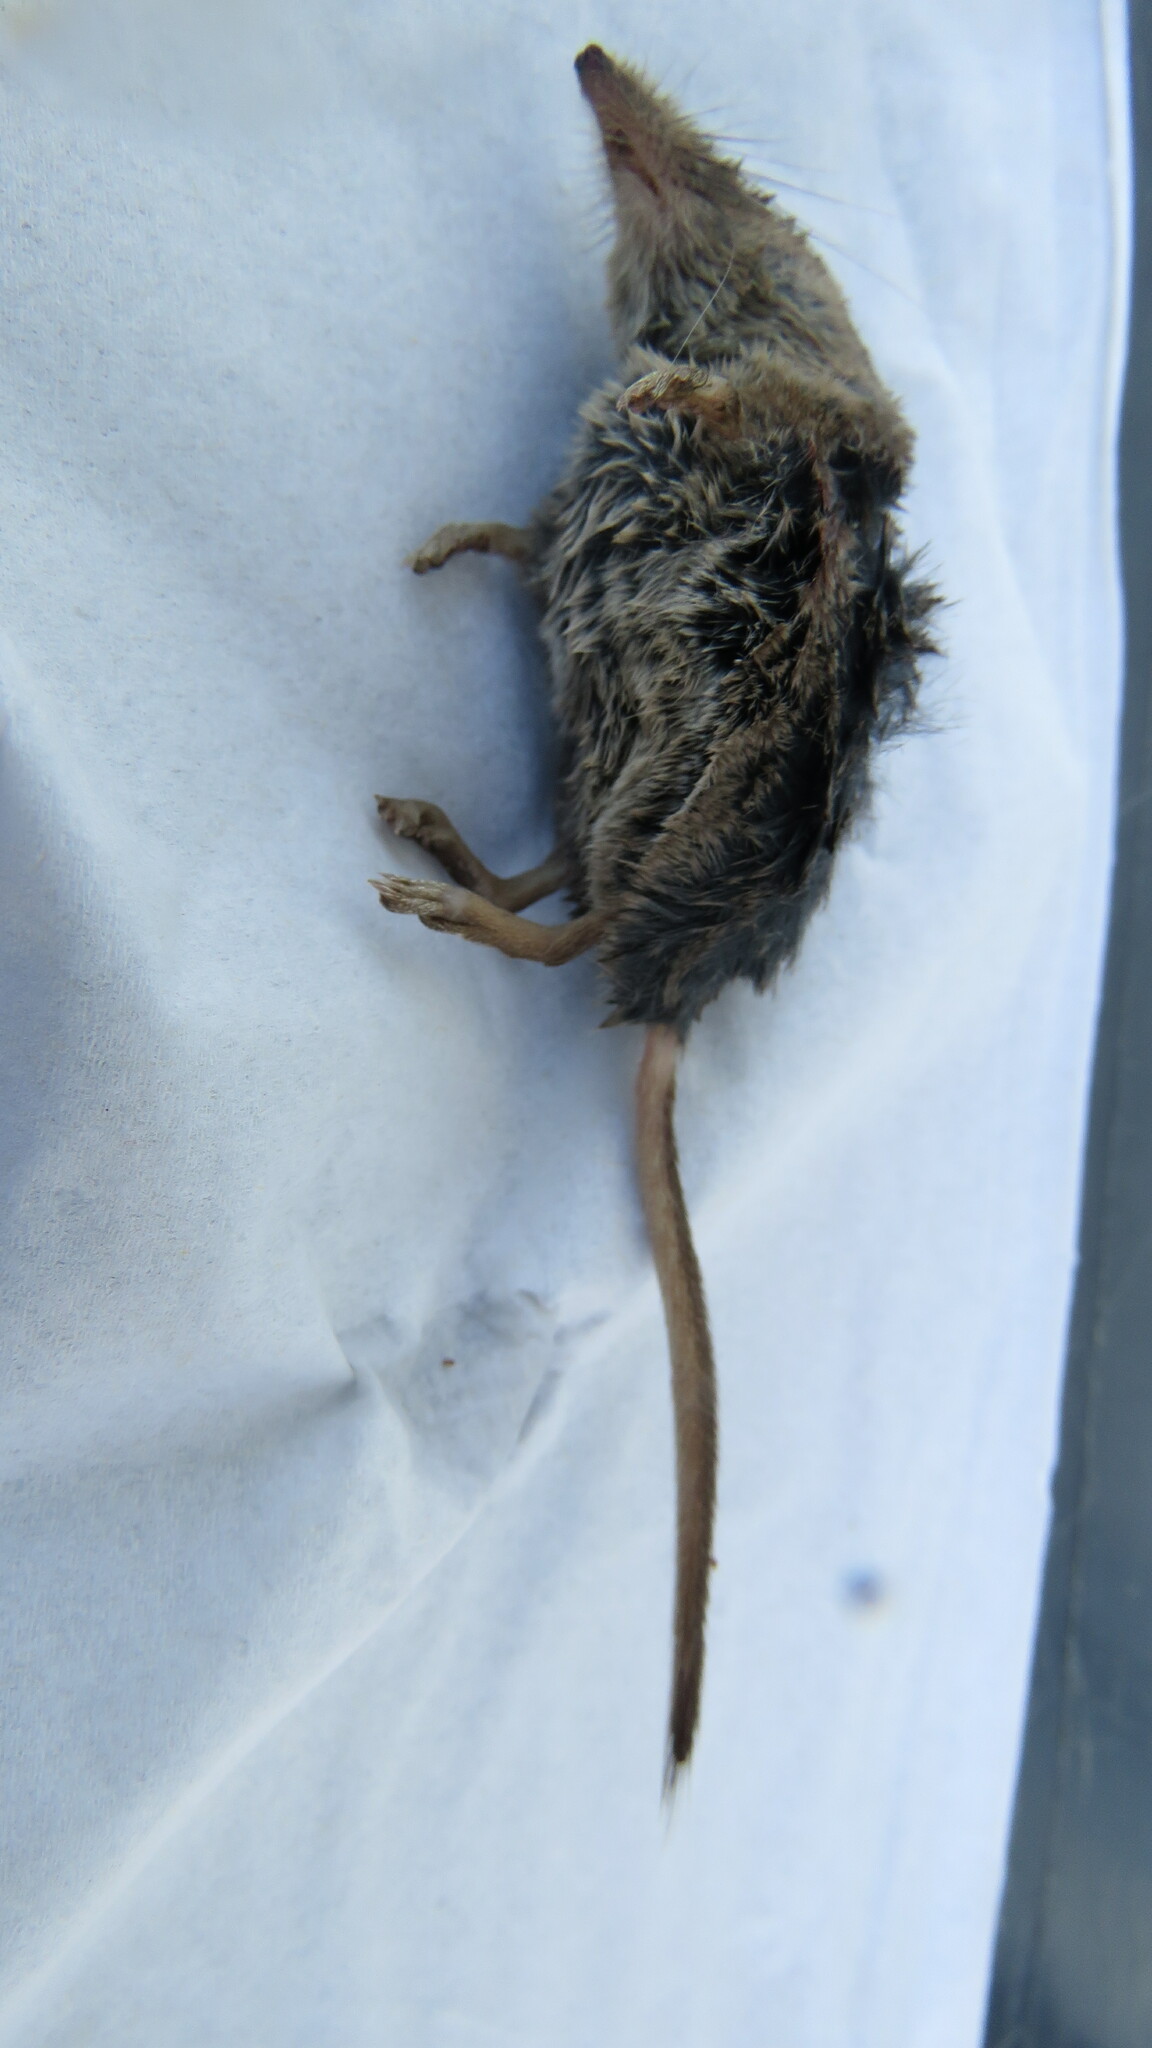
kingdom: Animalia
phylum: Chordata
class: Mammalia
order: Soricomorpha
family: Soricidae
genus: Sorex
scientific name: Sorex cinereus
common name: Cinereus shrew
